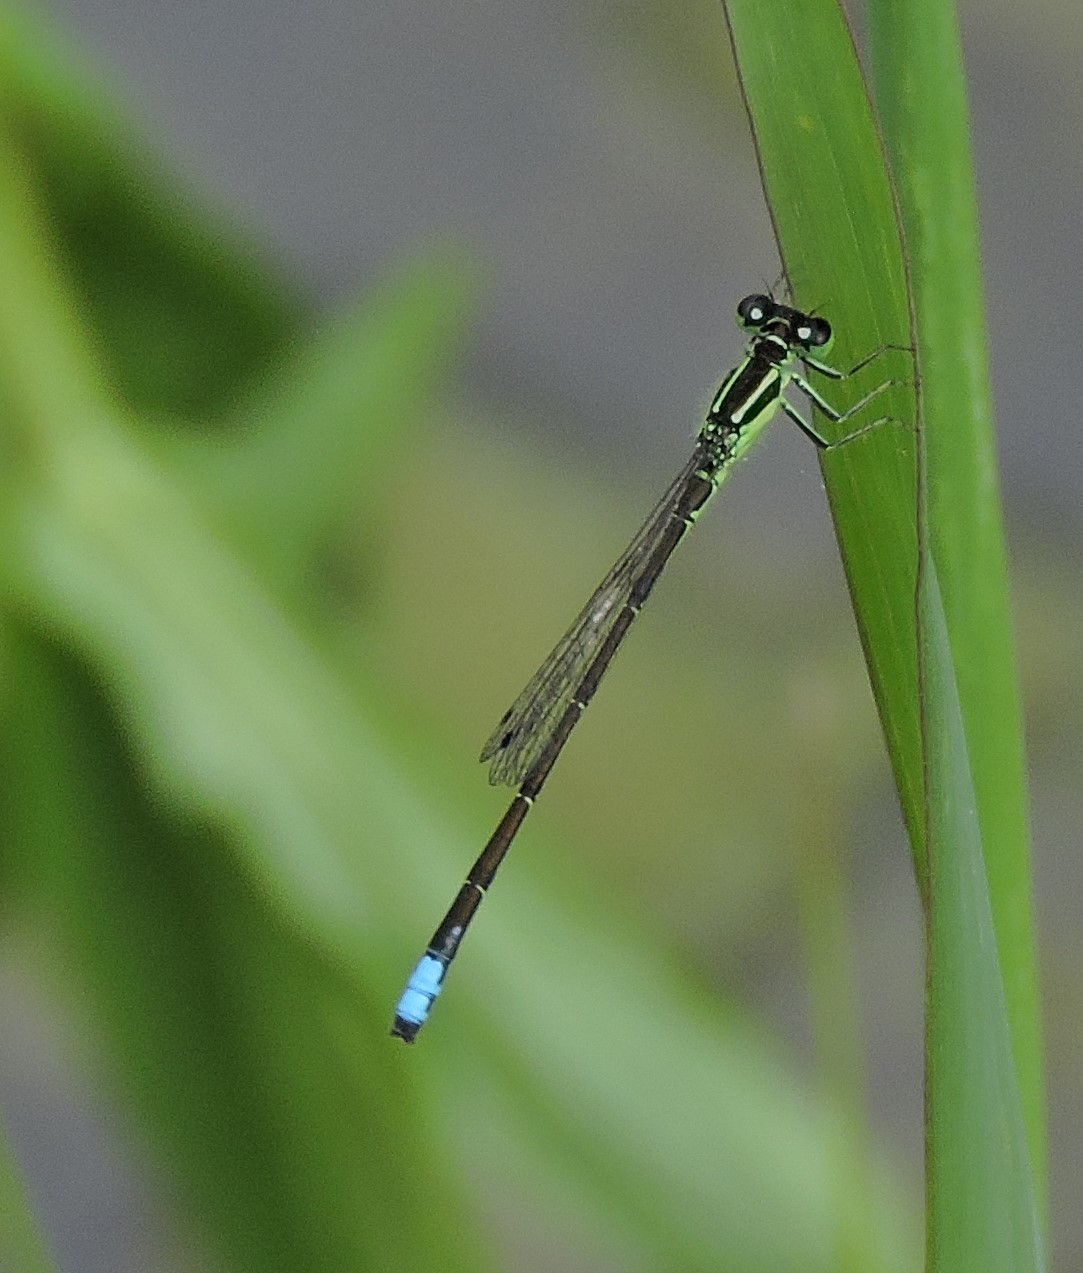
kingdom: Animalia
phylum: Arthropoda
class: Insecta
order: Odonata
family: Coenagrionidae
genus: Ischnura
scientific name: Ischnura verticalis
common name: Eastern forktail
